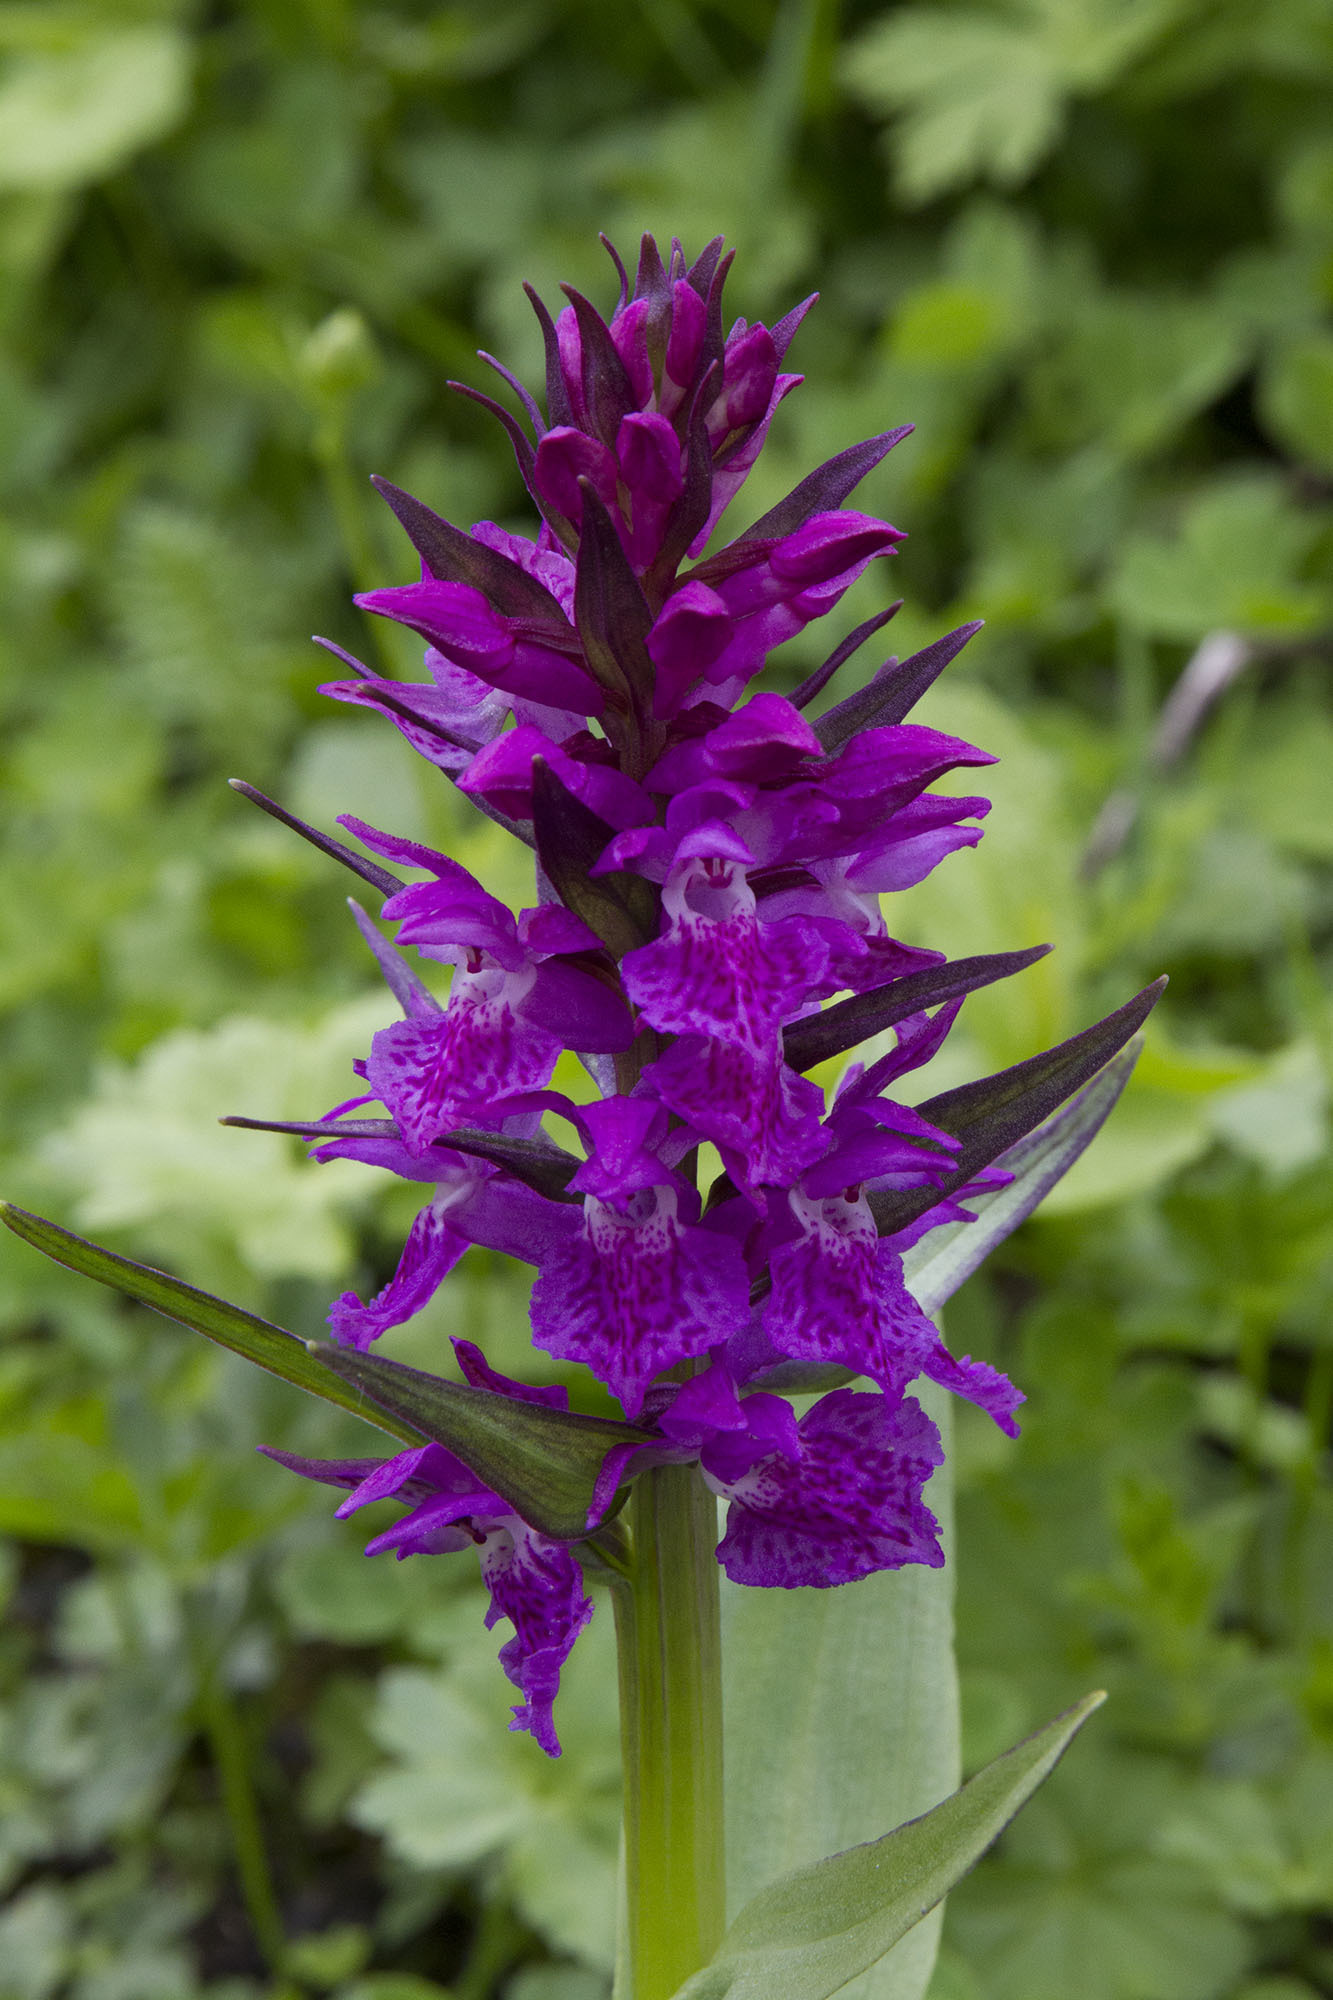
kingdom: Plantae
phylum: Tracheophyta
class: Liliopsida
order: Asparagales
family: Orchidaceae
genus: Dactylorhiza
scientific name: Dactylorhiza euxina
